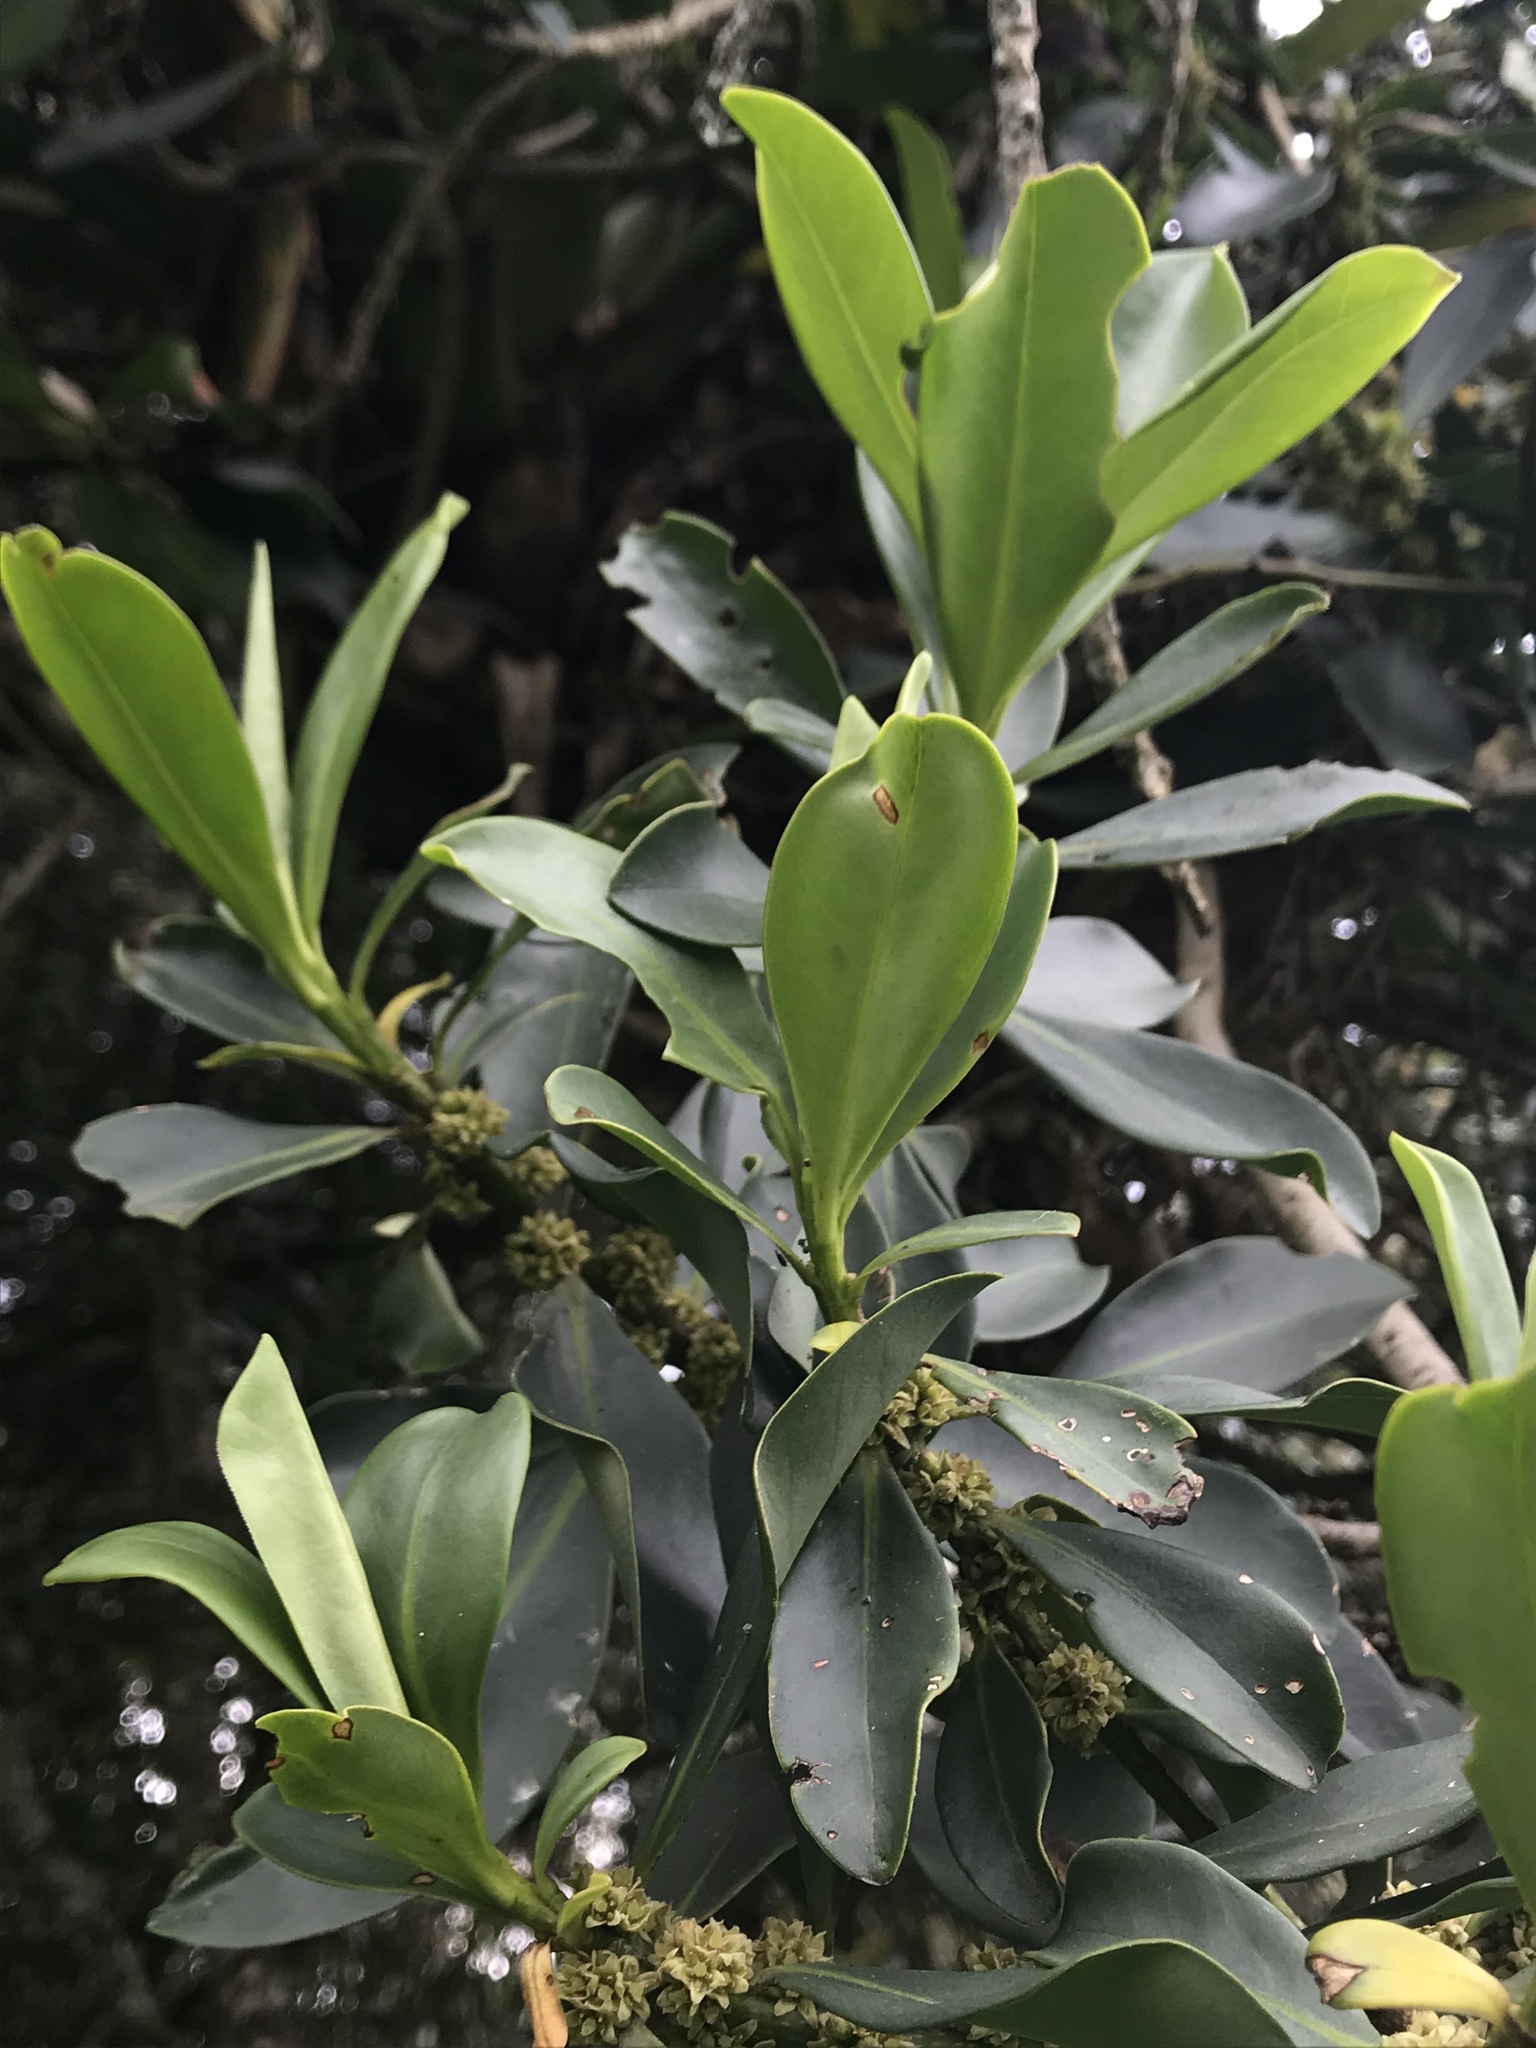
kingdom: Plantae
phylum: Tracheophyta
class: Magnoliopsida
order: Ericales
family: Primulaceae
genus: Myrsine
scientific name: Myrsine guianensis
